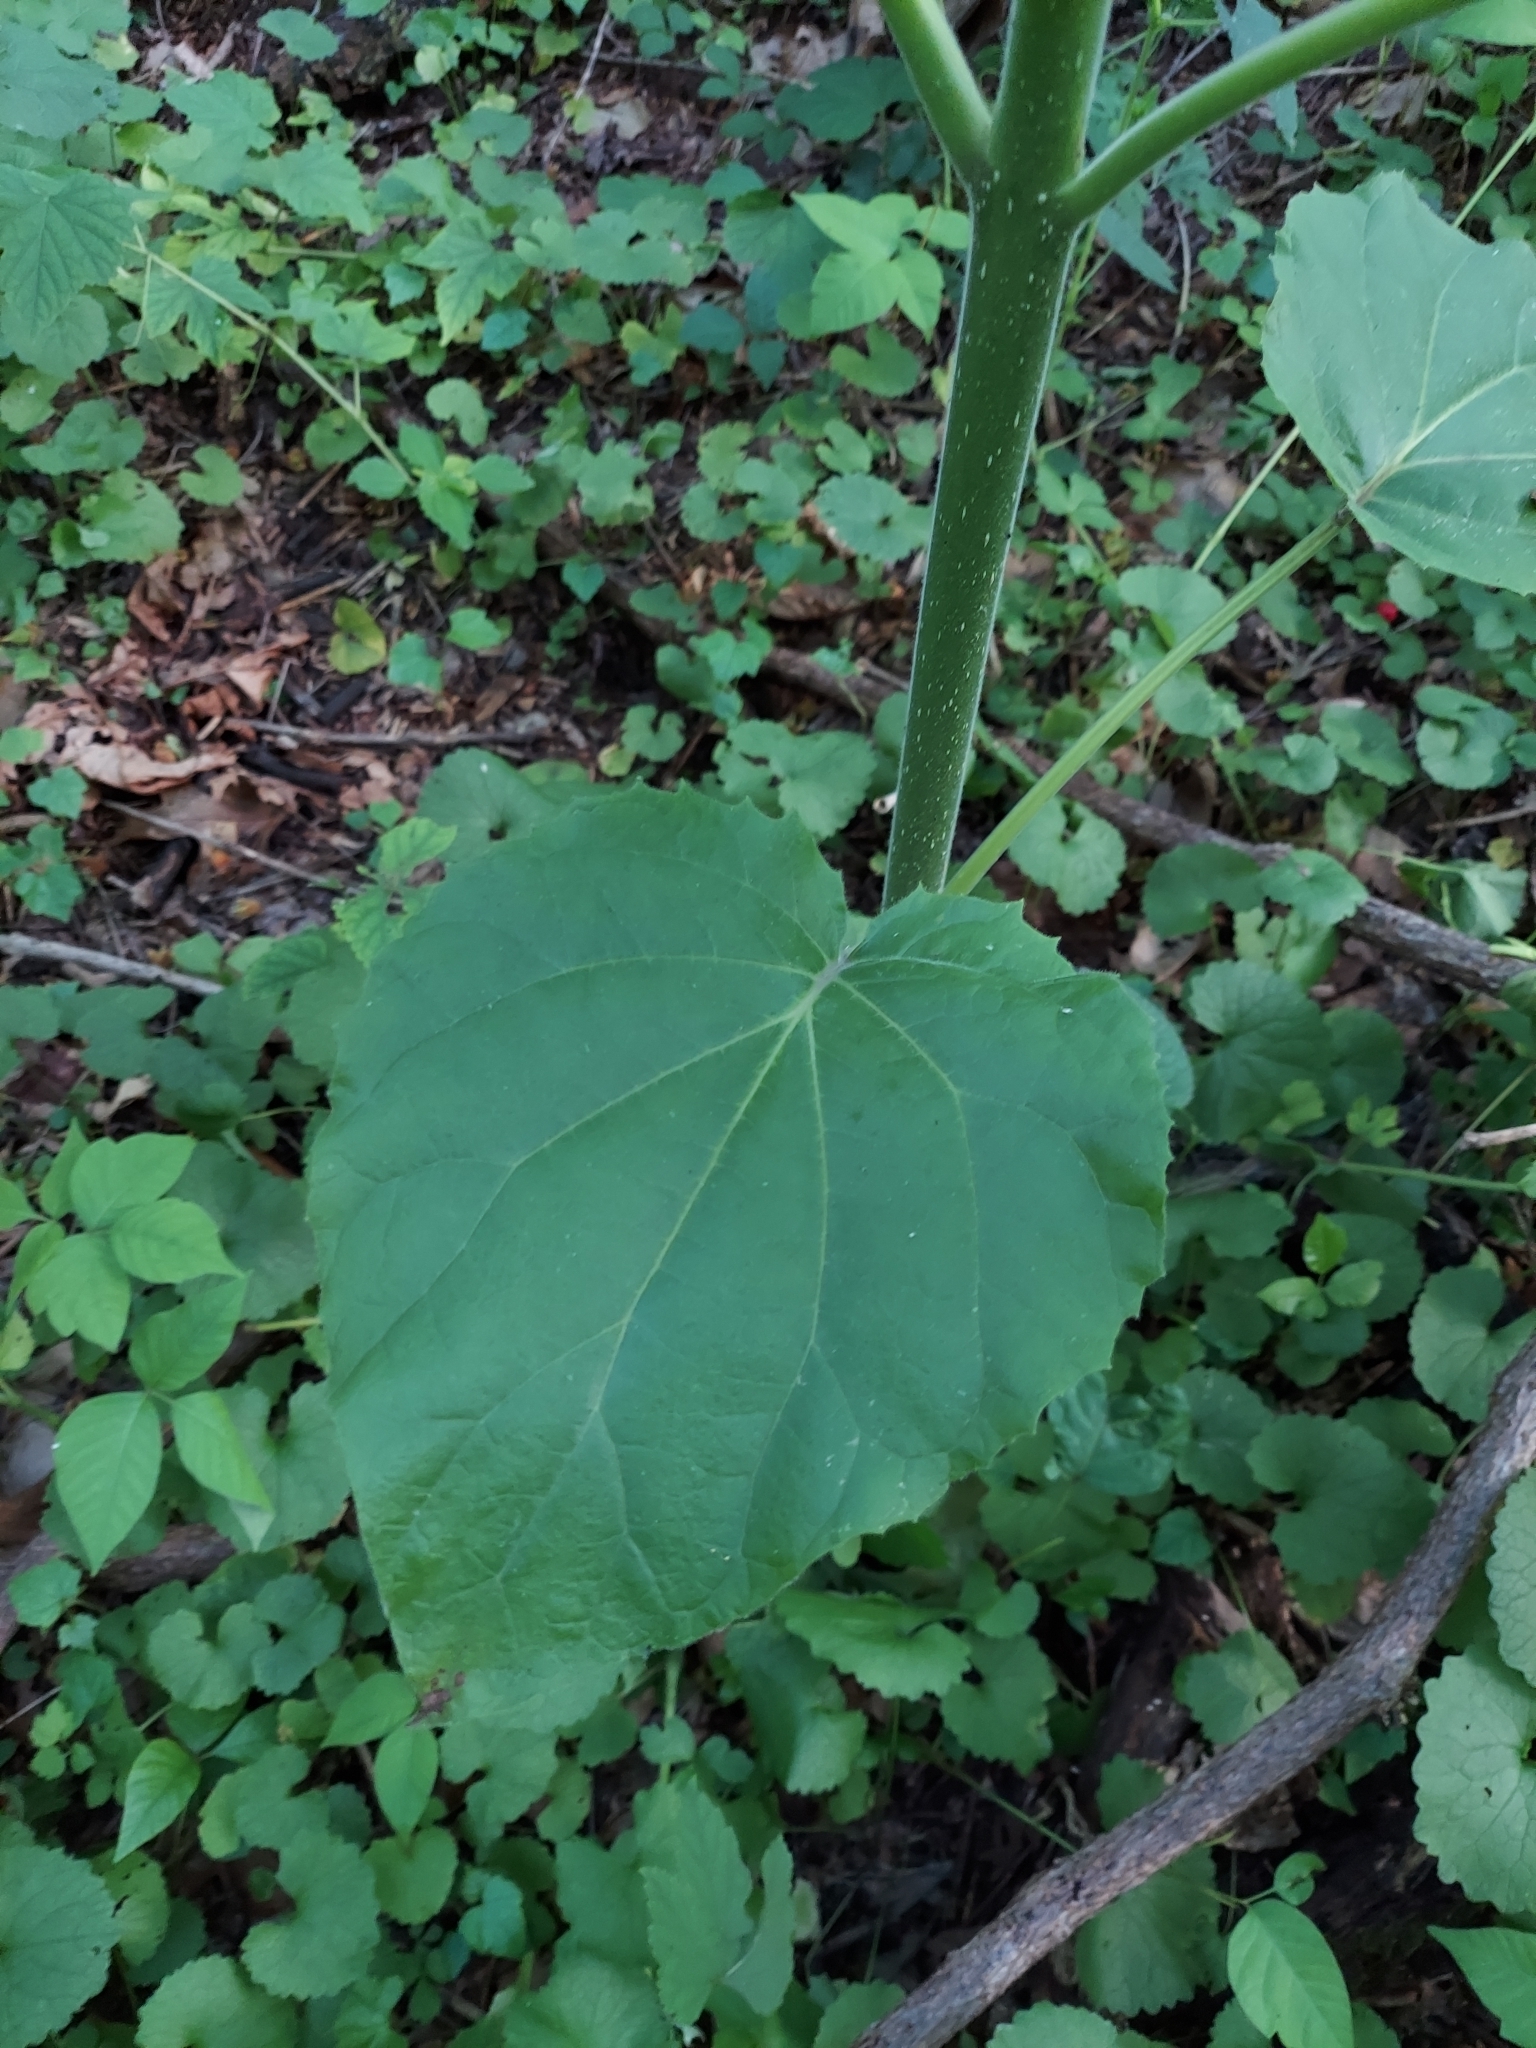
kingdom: Plantae
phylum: Tracheophyta
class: Magnoliopsida
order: Lamiales
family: Paulowniaceae
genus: Paulownia
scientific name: Paulownia tomentosa
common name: Foxglove-tree
